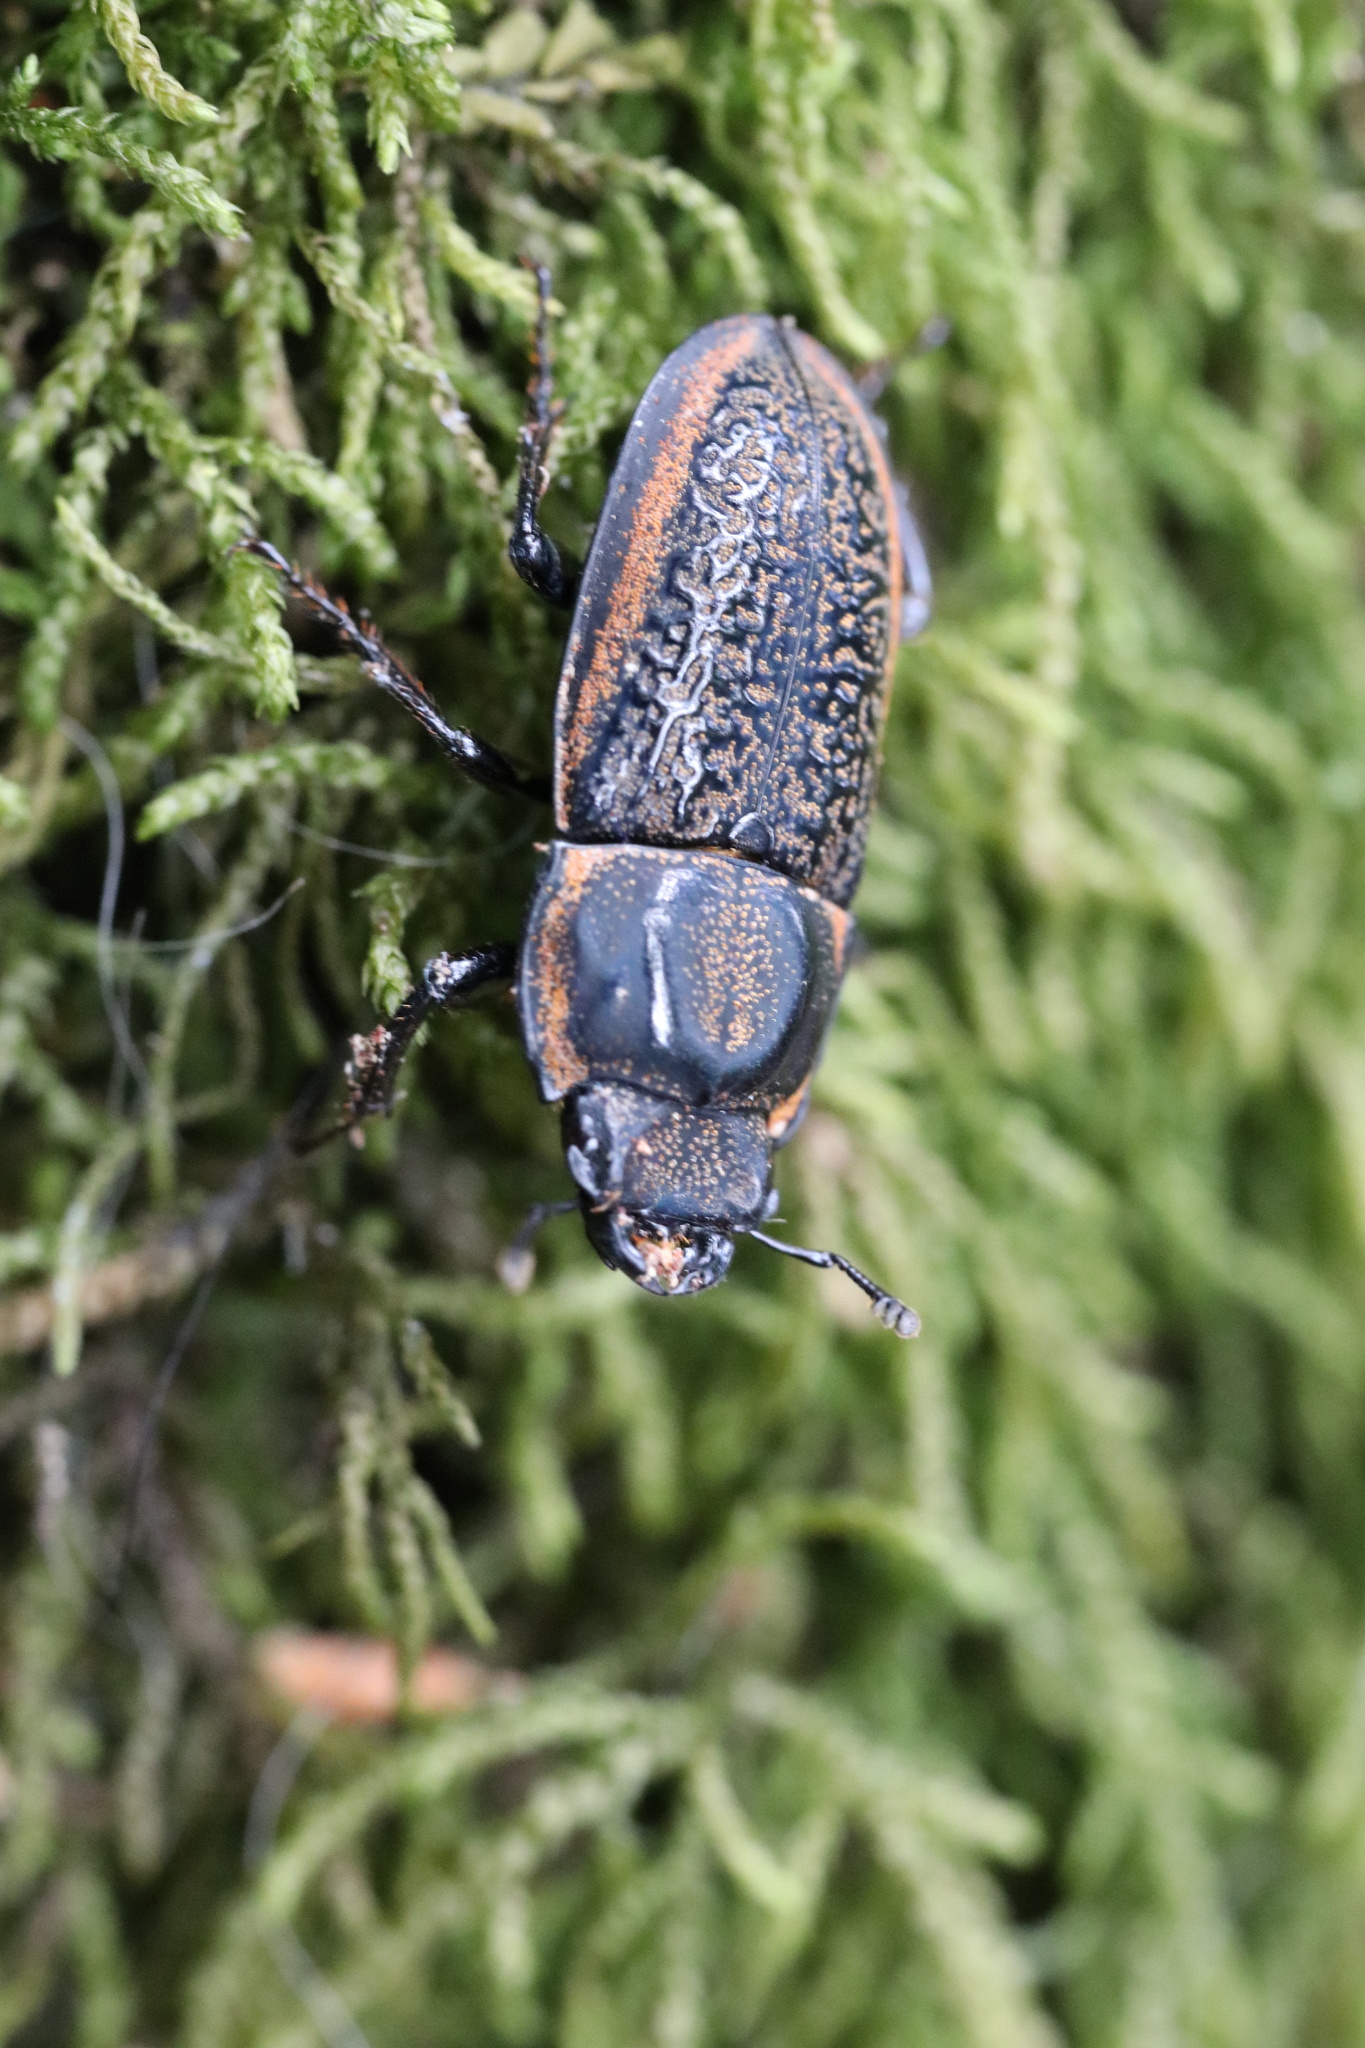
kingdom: Animalia
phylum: Arthropoda
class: Insecta
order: Coleoptera
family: Lucanidae
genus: Pycnosiphorus
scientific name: Pycnosiphorus lessonii
